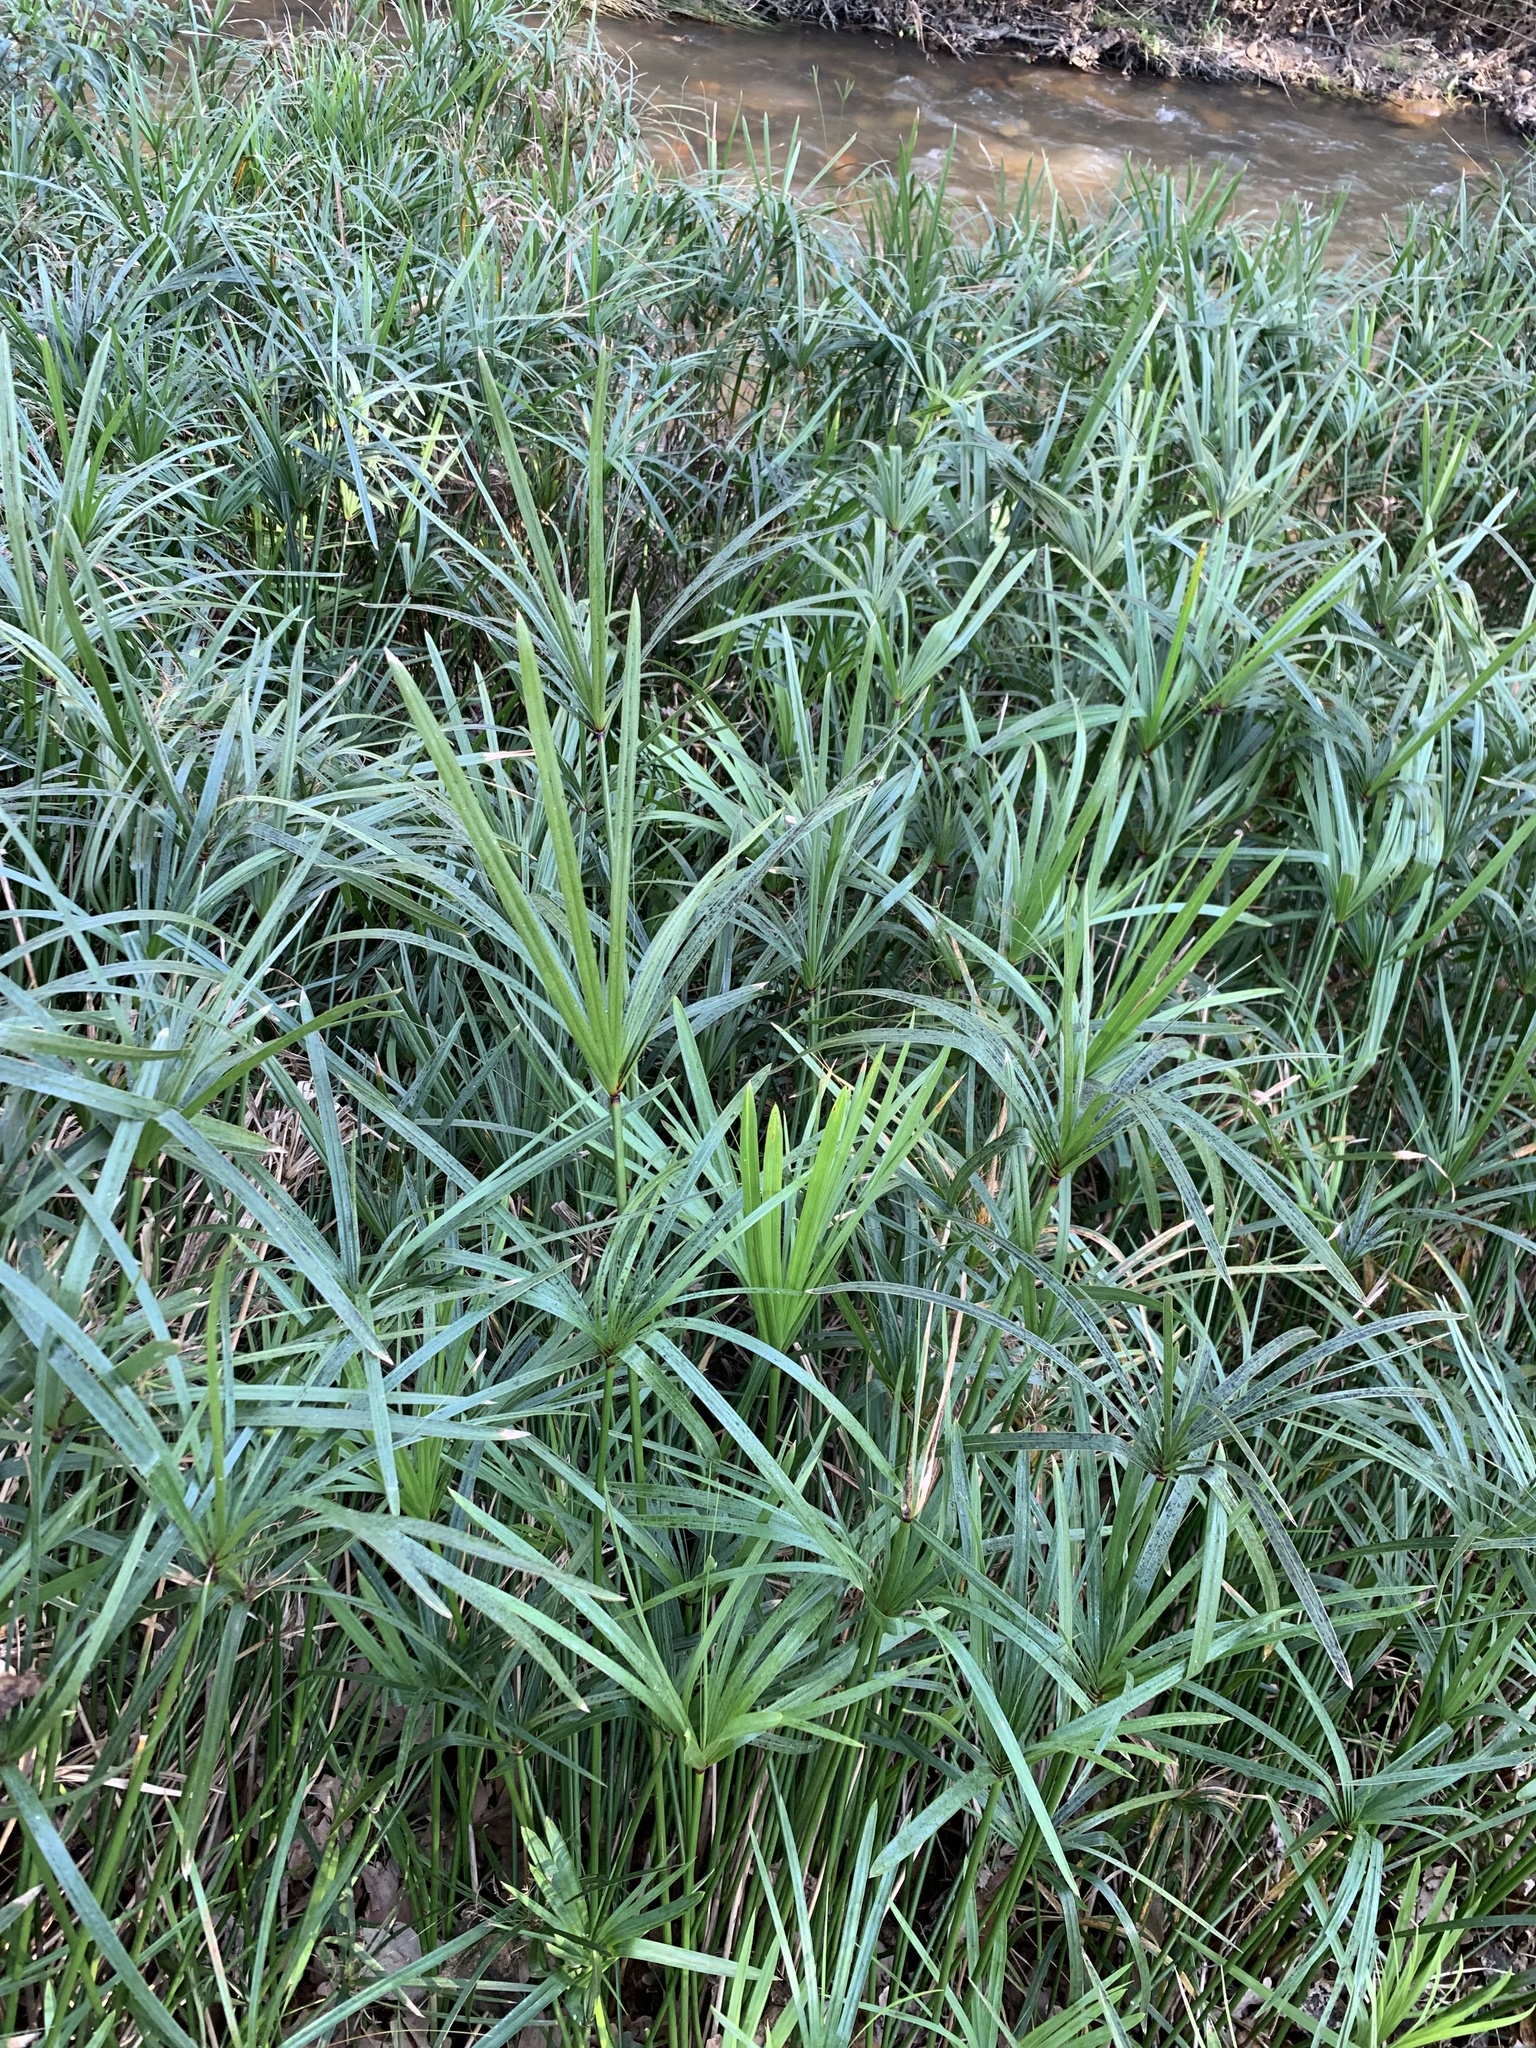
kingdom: Plantae
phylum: Tracheophyta
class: Liliopsida
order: Poales
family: Cyperaceae
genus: Cyperus
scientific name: Cyperus textilis
